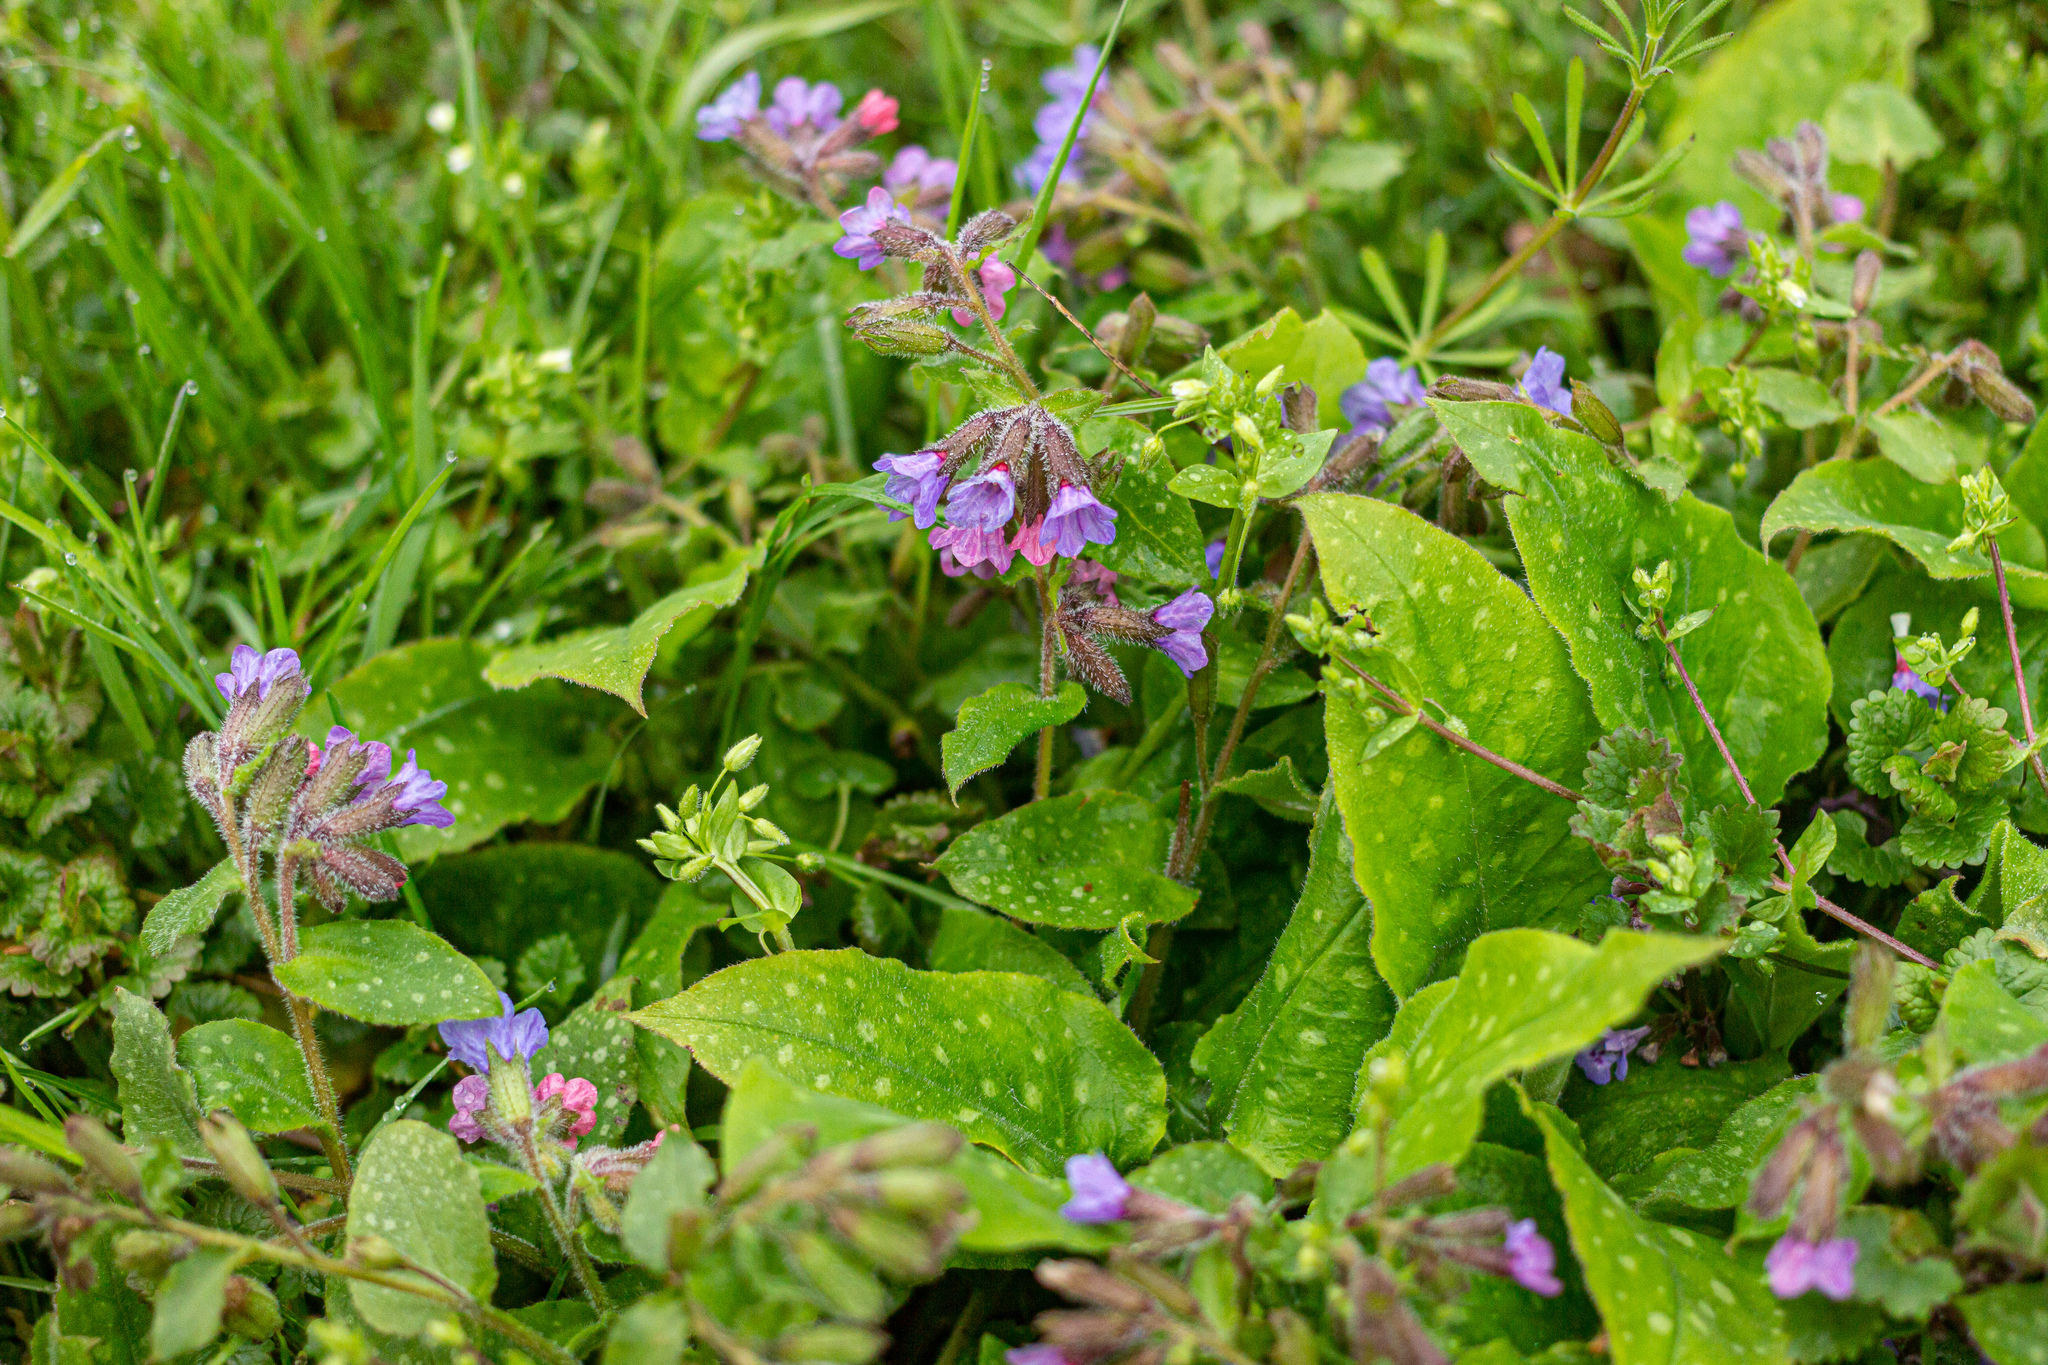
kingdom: Plantae
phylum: Tracheophyta
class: Magnoliopsida
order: Boraginales
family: Boraginaceae
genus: Pulmonaria
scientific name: Pulmonaria officinalis
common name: Lungwort
